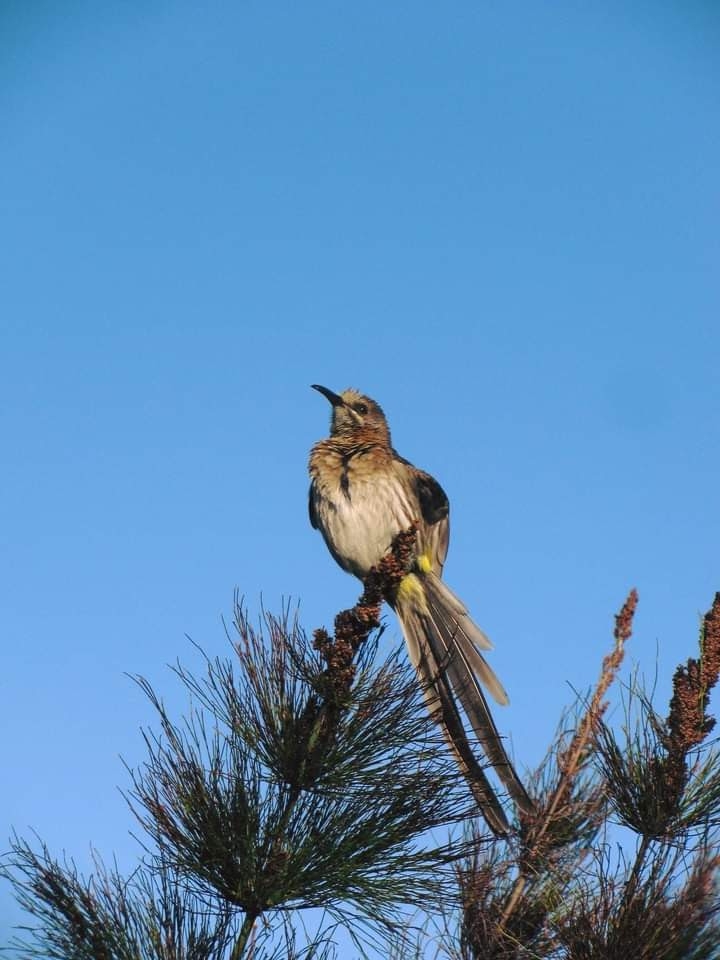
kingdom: Animalia
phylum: Chordata
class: Aves
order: Passeriformes
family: Promeropidae
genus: Promerops
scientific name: Promerops cafer
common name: Cape sugarbird
